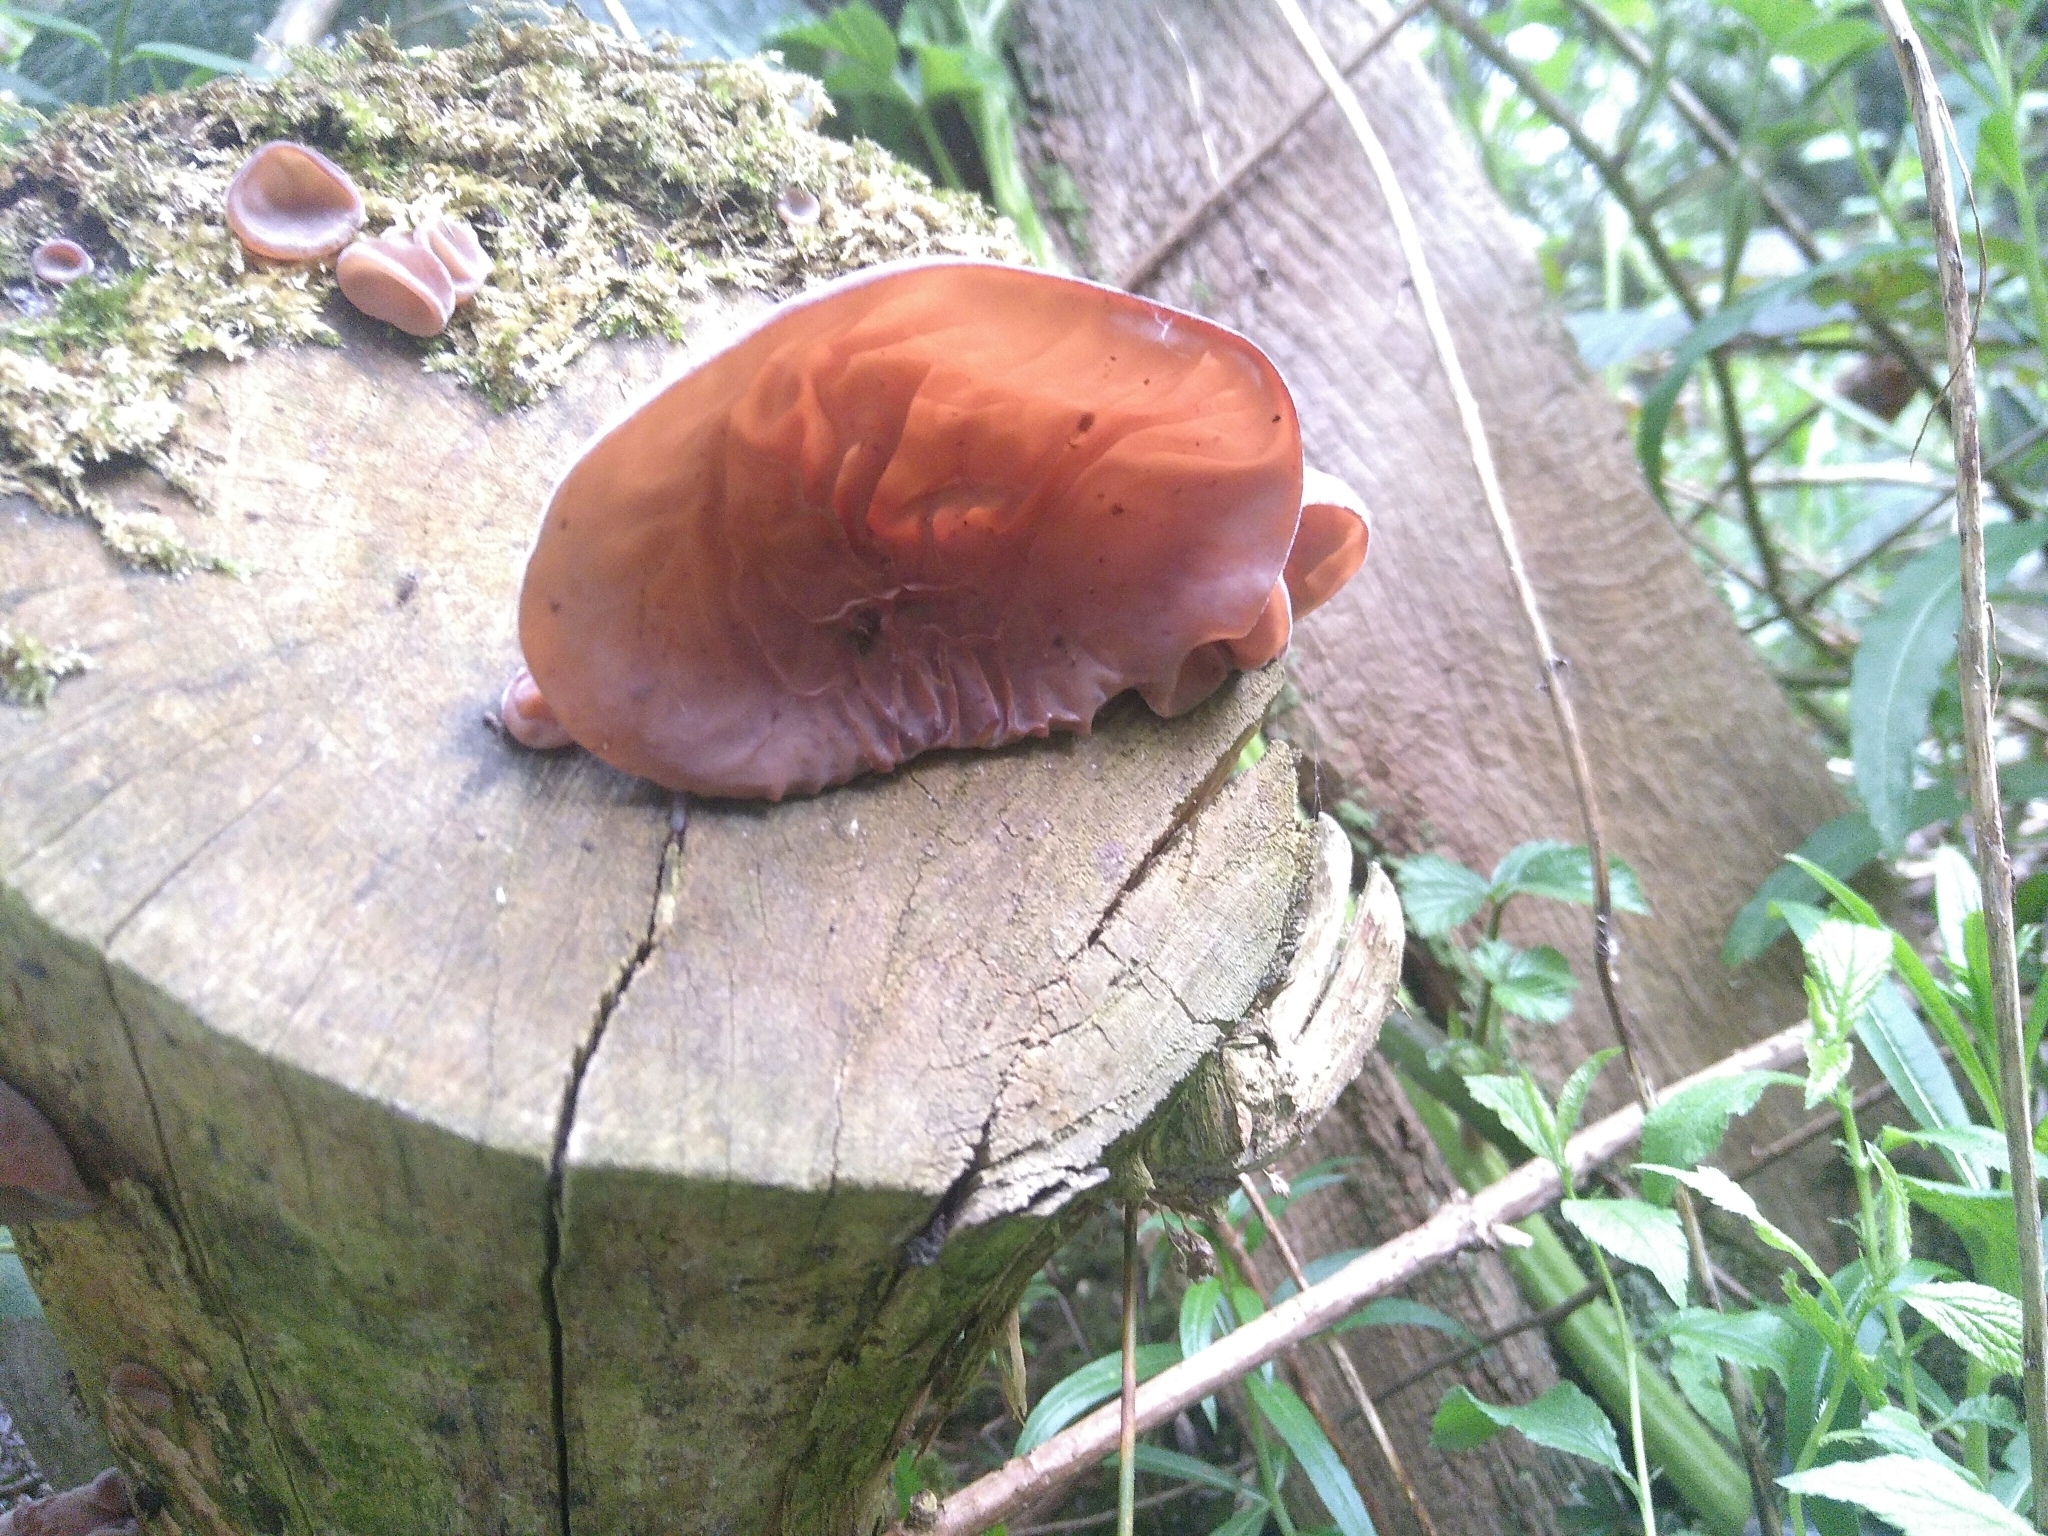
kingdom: Fungi
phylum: Basidiomycota
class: Agaricomycetes
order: Auriculariales
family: Auriculariaceae
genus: Auricularia
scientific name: Auricularia auricula-judae
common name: Jelly ear
